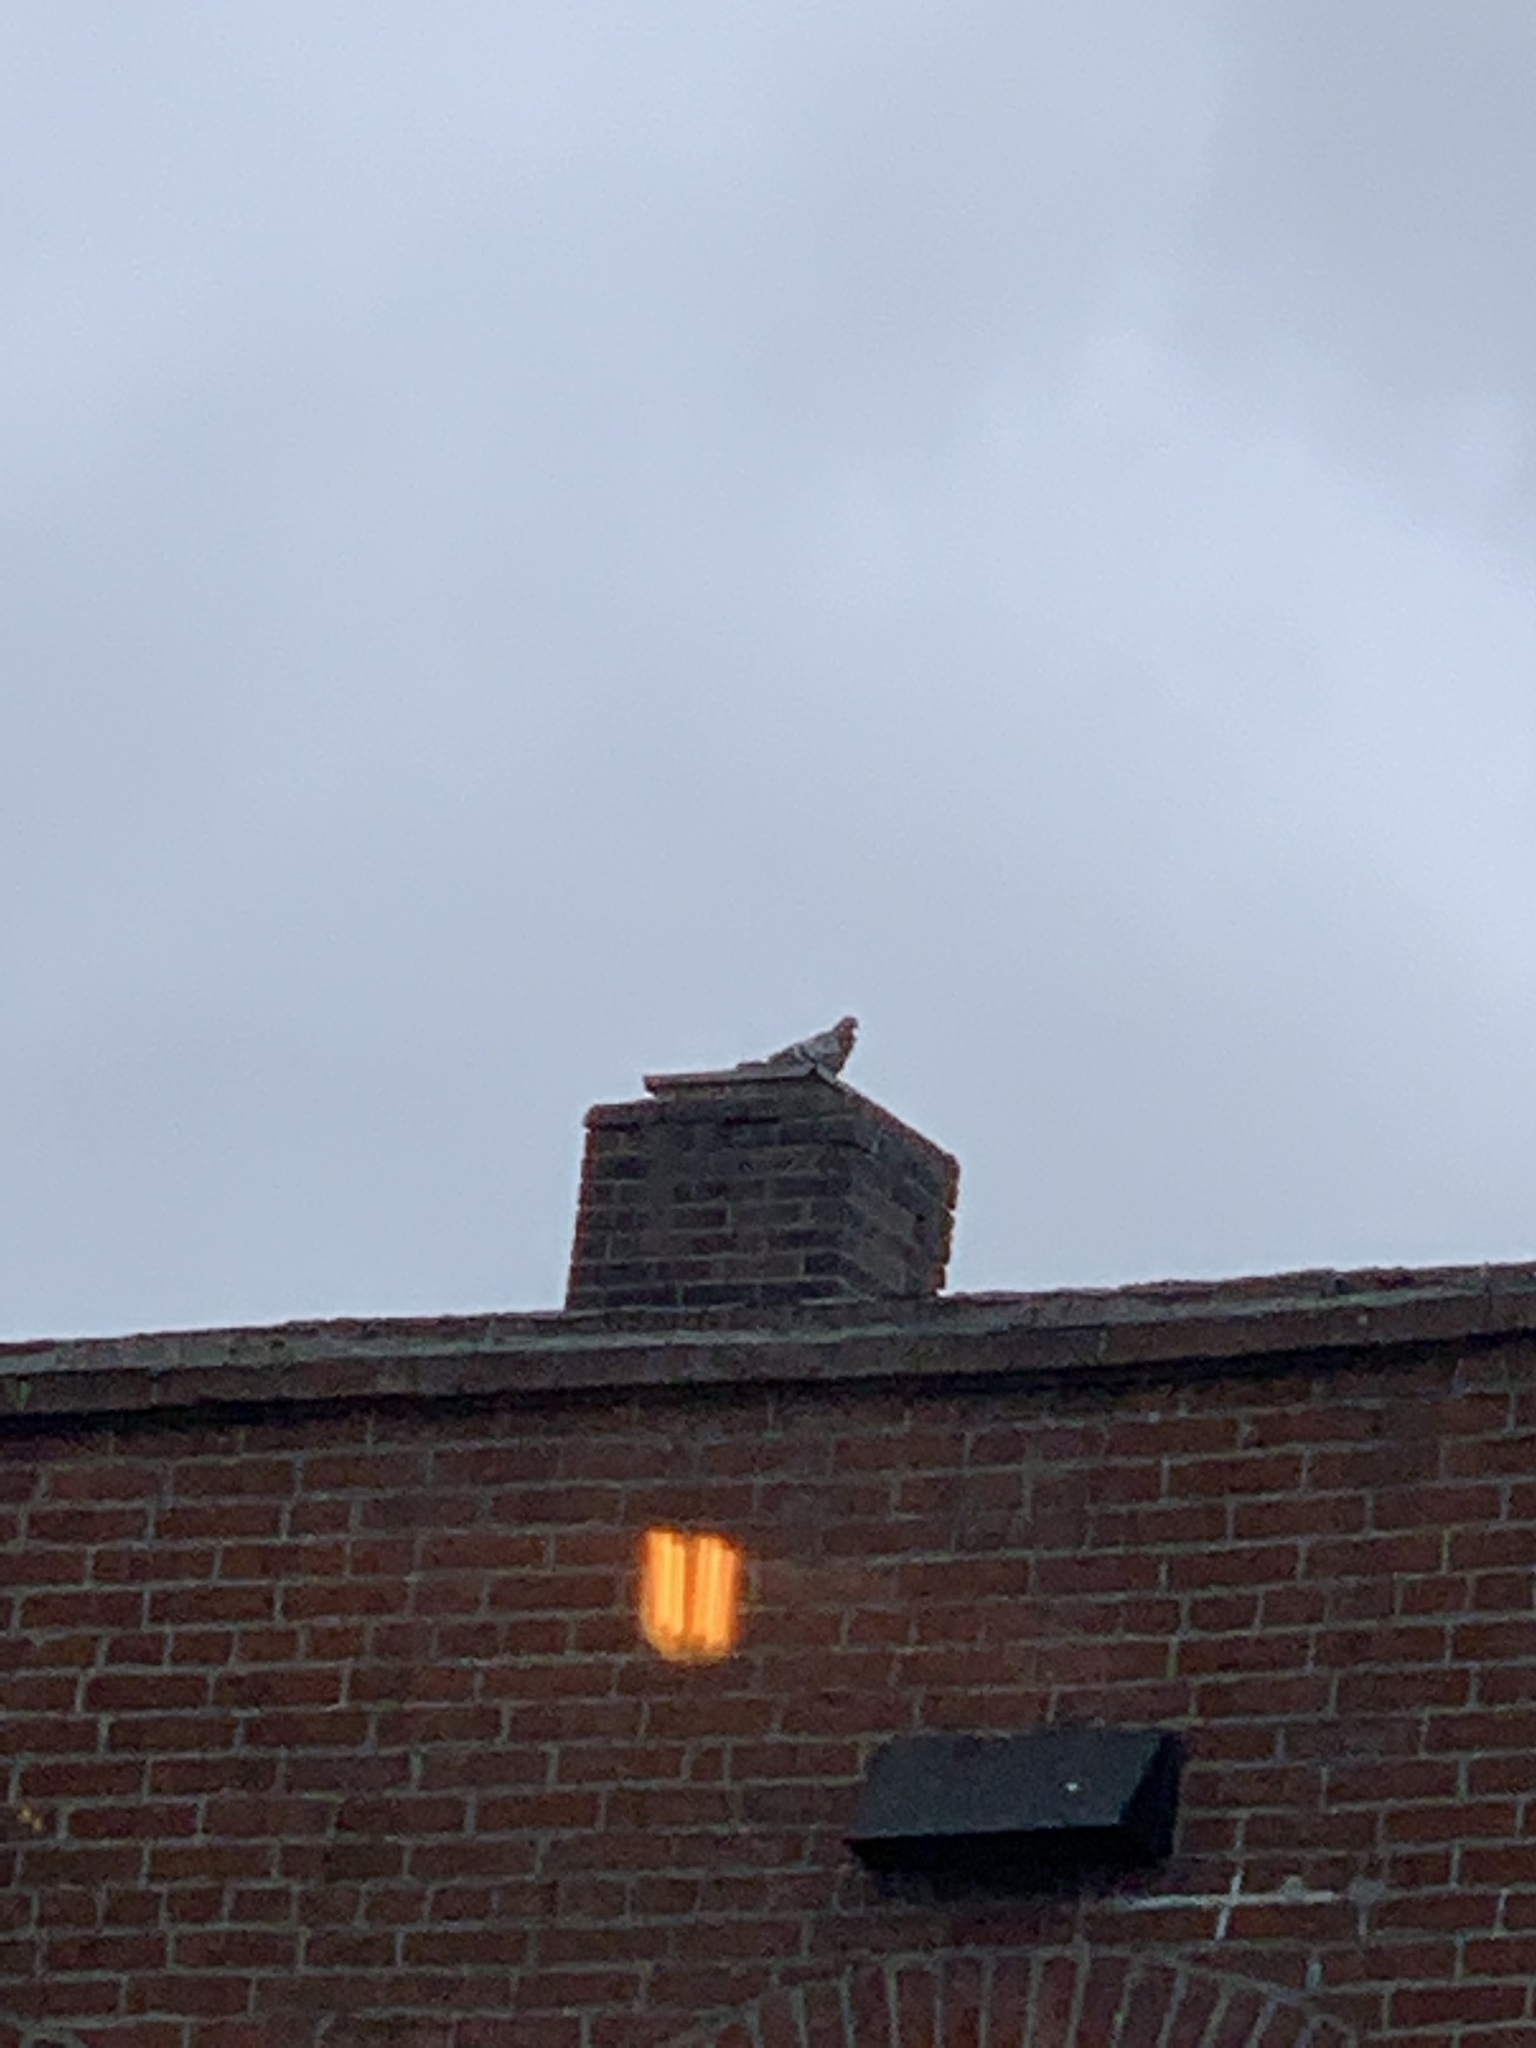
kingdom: Animalia
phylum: Chordata
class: Aves
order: Columbiformes
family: Columbidae
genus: Columba
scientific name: Columba livia
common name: Rock pigeon
